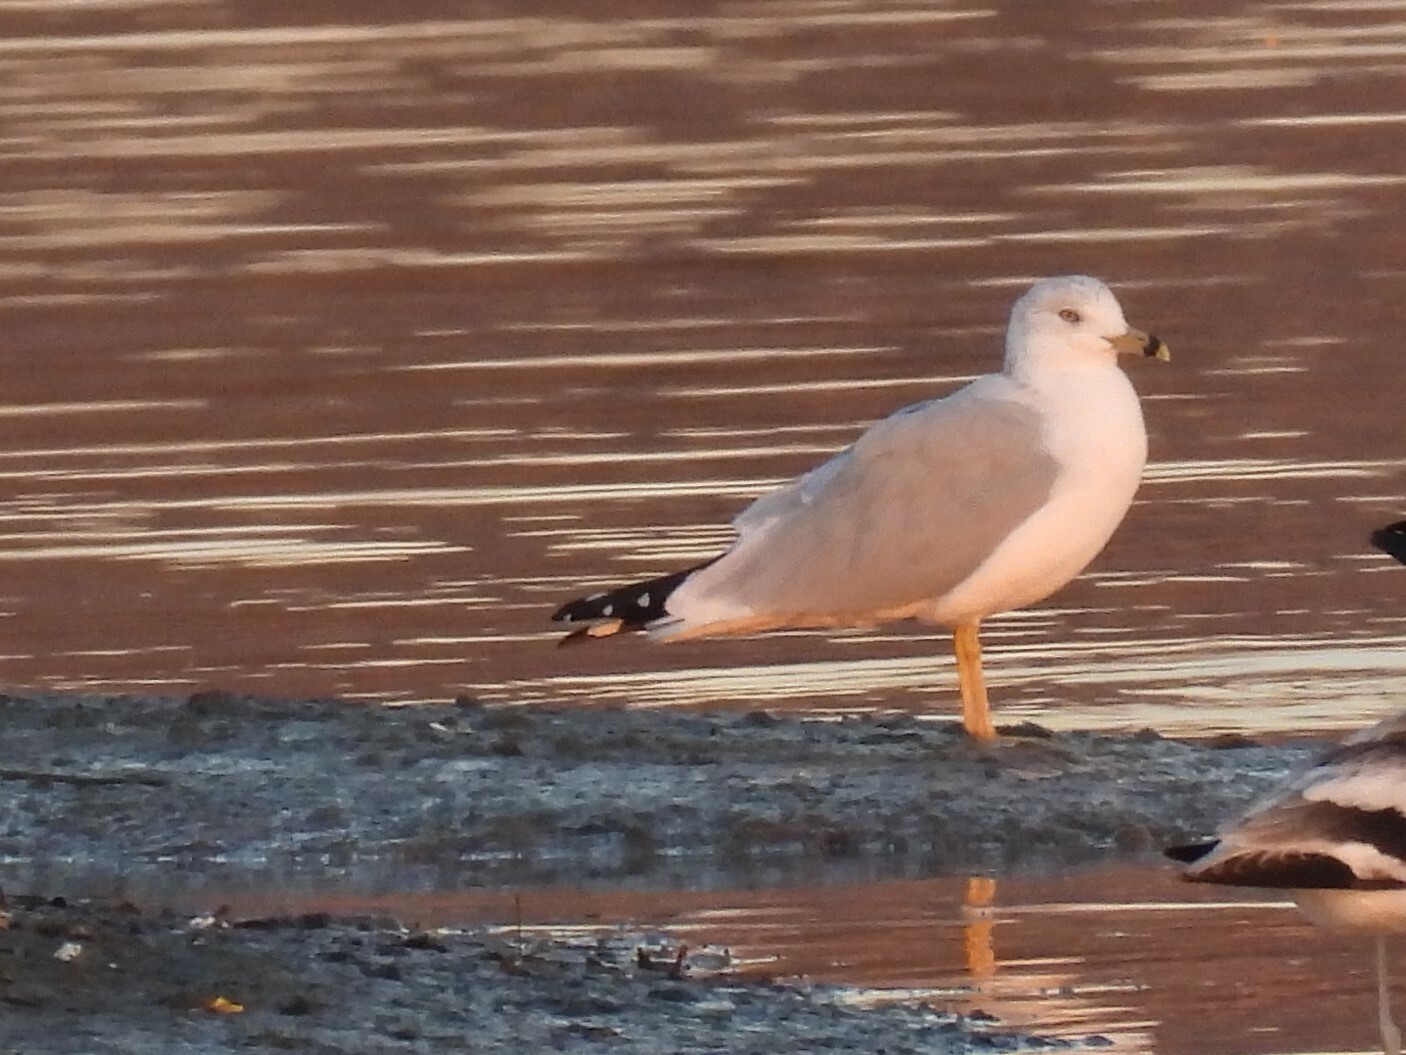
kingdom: Animalia
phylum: Chordata
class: Aves
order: Charadriiformes
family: Laridae
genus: Larus
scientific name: Larus delawarensis
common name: Ring-billed gull
